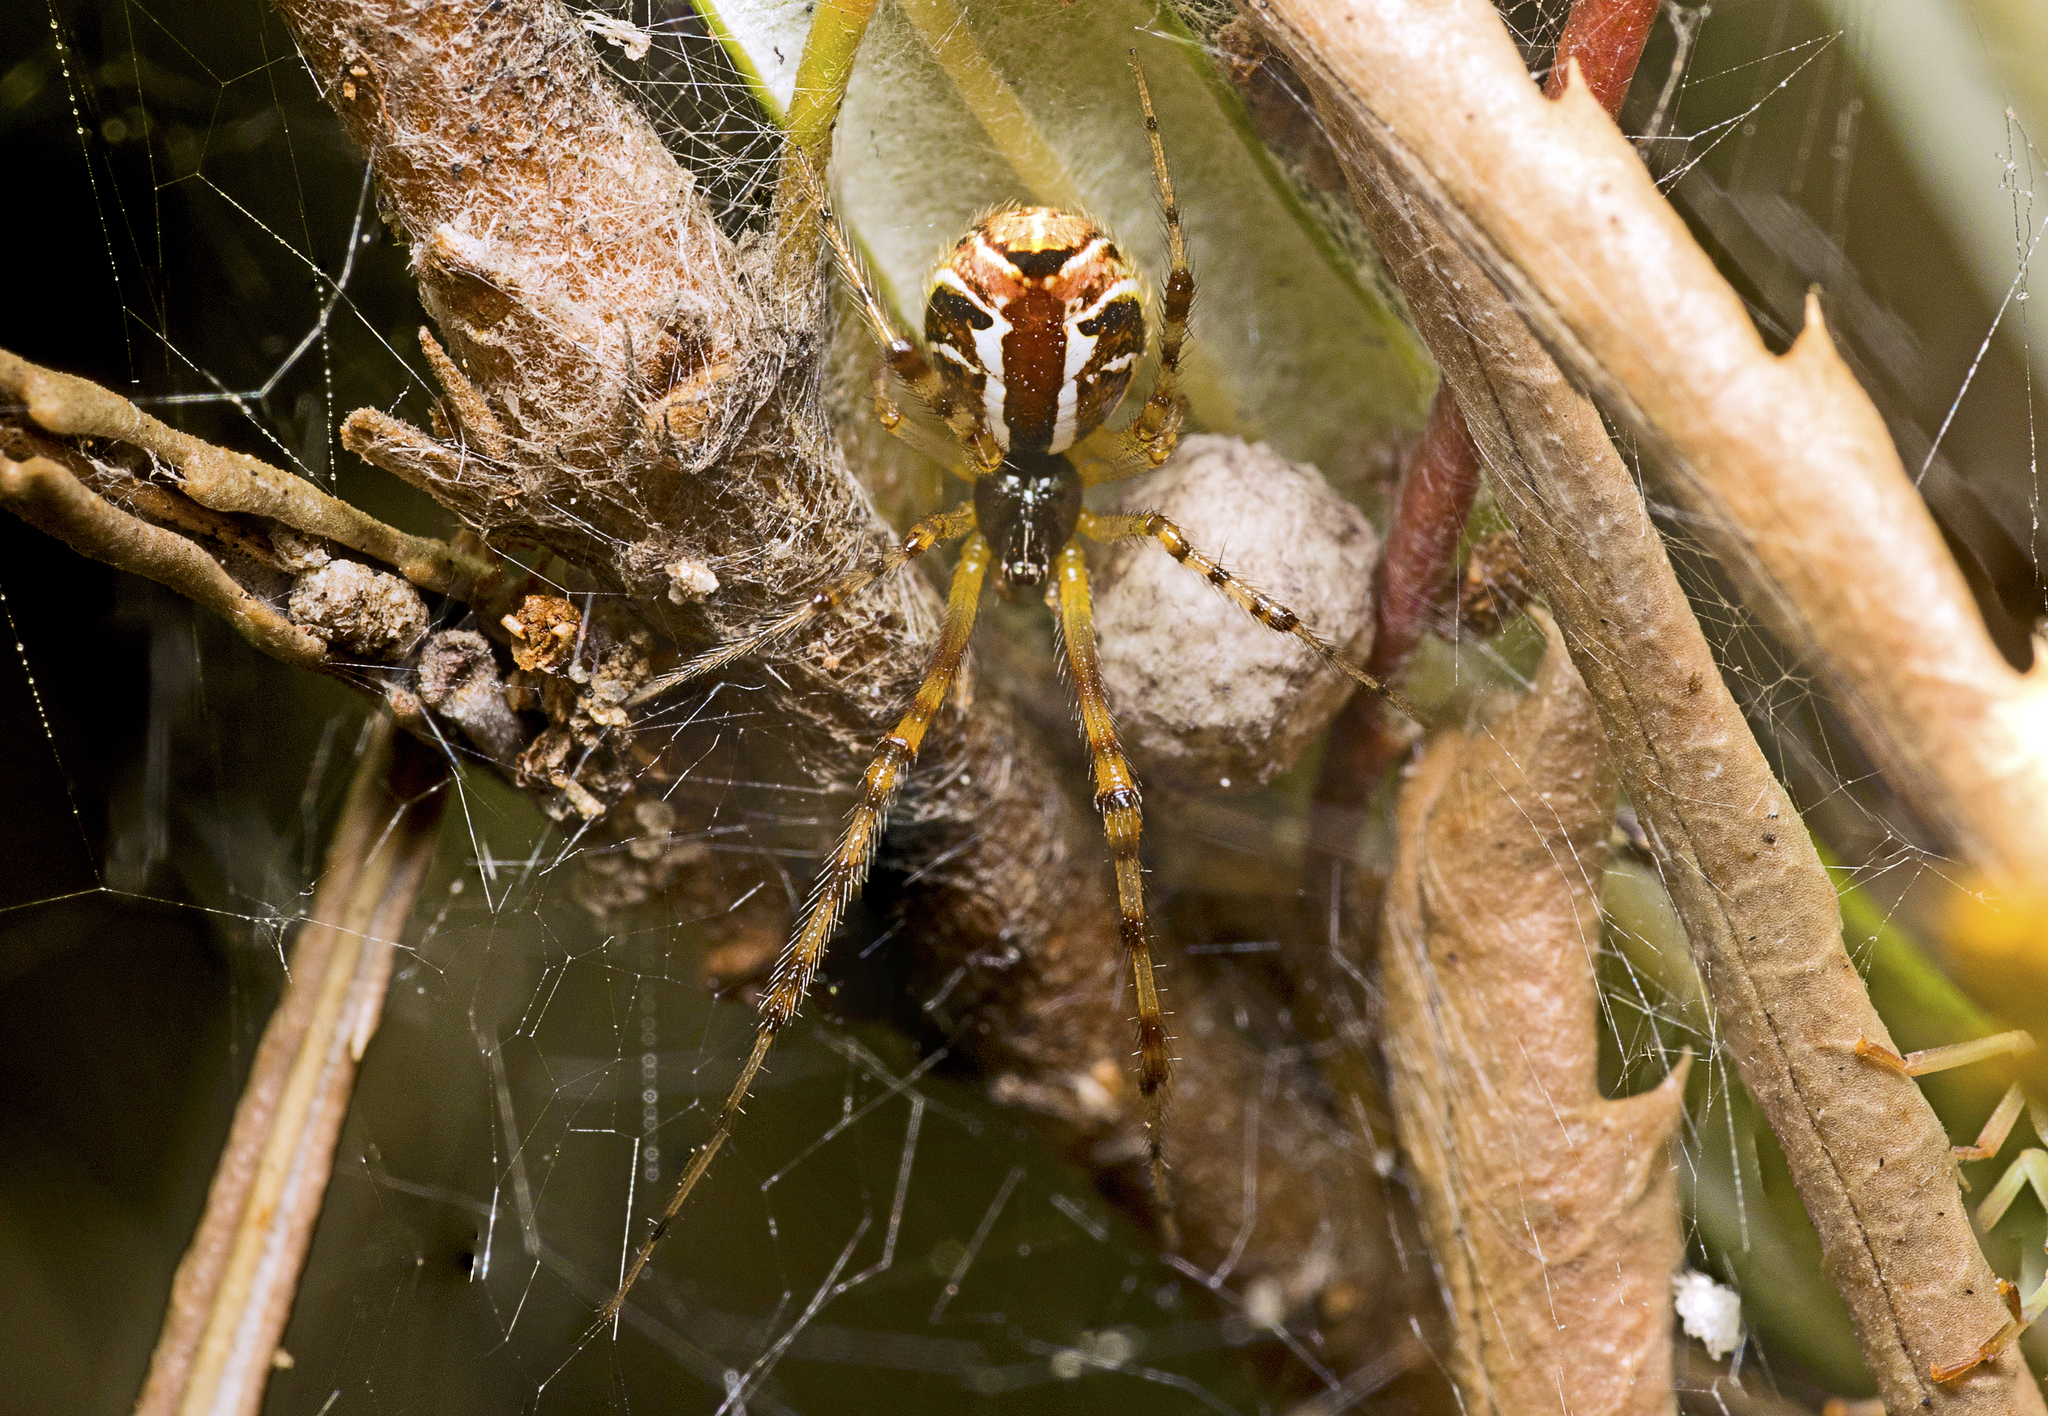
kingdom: Animalia
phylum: Arthropoda
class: Arachnida
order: Araneae
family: Theridiidae
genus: Theridion
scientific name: Theridion pyramidale
